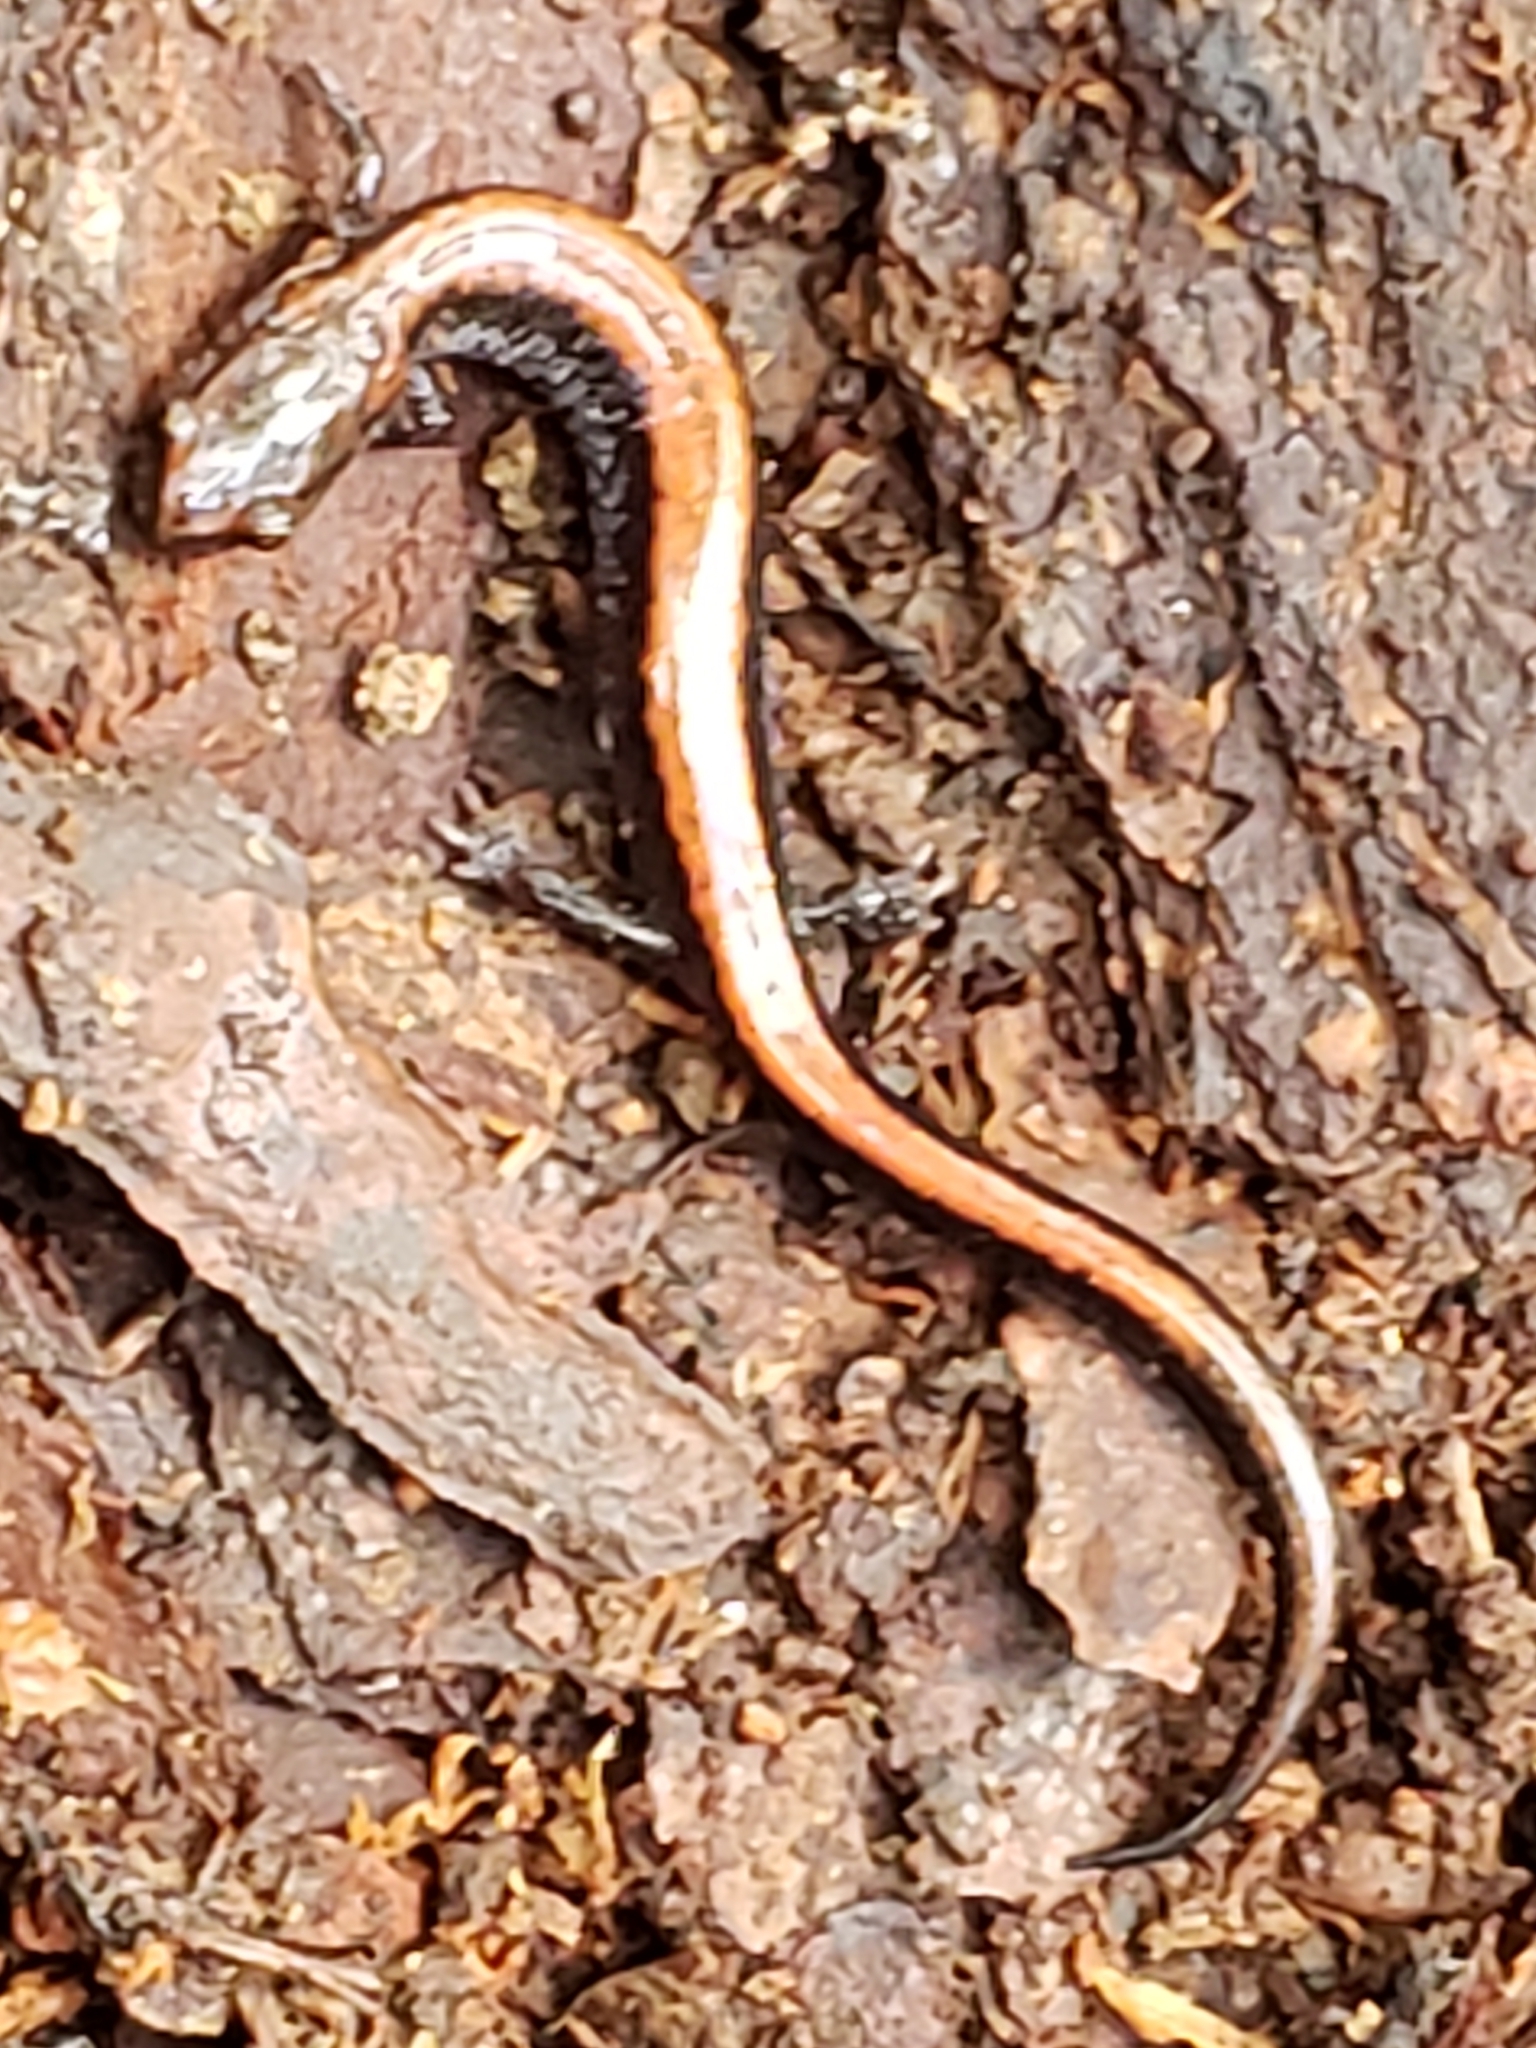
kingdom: Animalia
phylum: Chordata
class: Amphibia
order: Caudata
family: Plethodontidae
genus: Plethodon
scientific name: Plethodon cinereus
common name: Redback salamander
